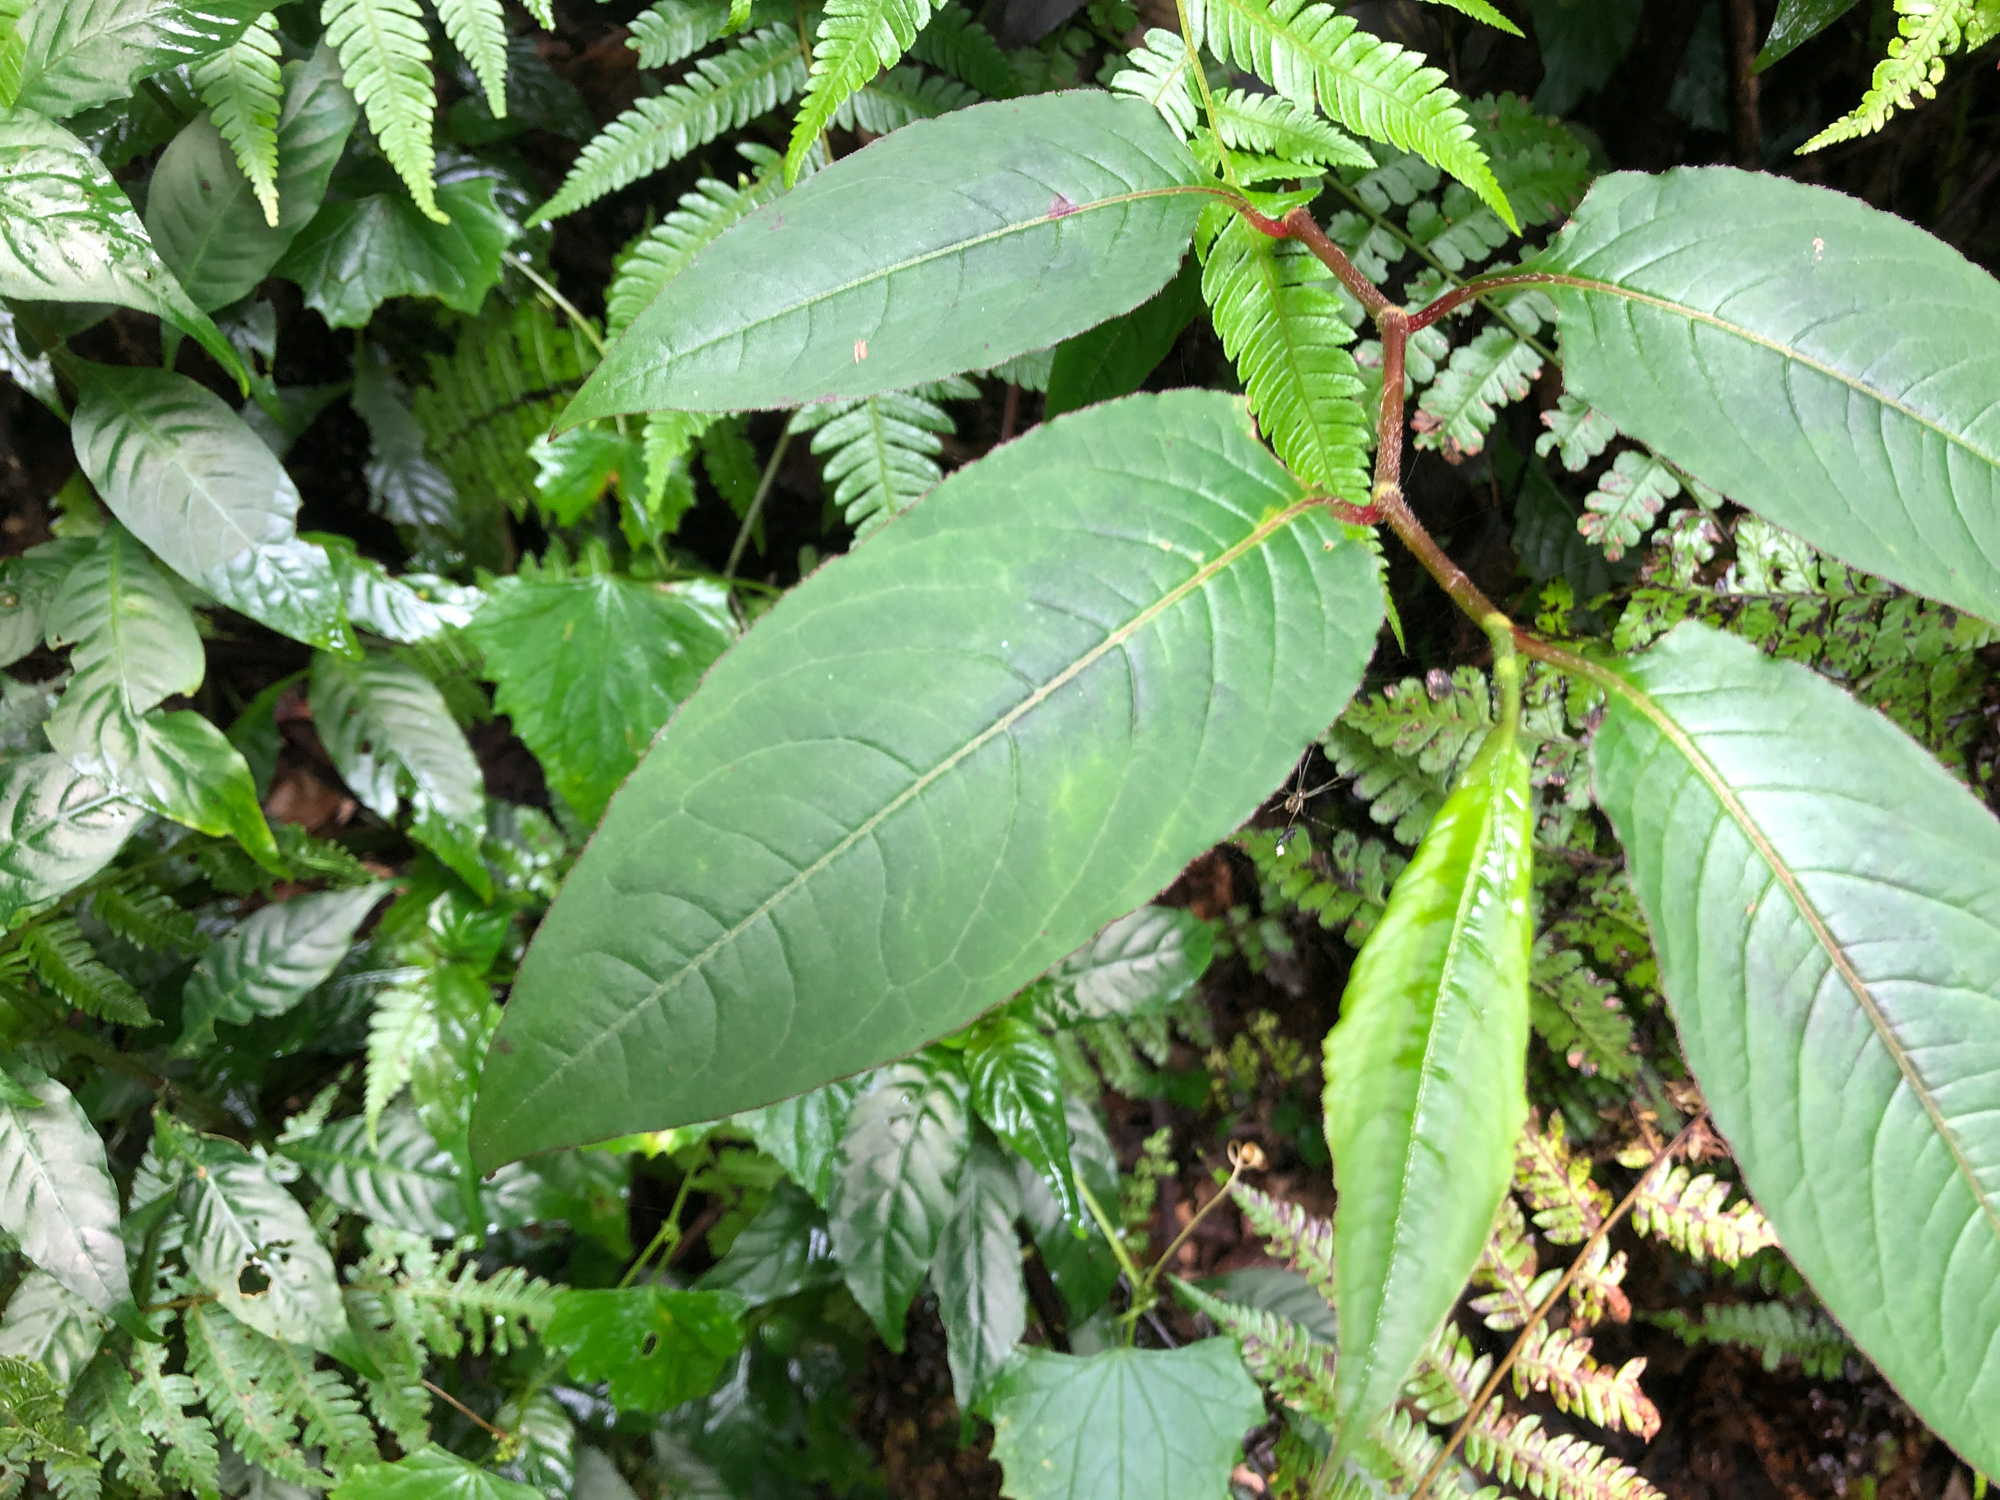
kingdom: Plantae
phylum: Tracheophyta
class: Magnoliopsida
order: Caryophyllales
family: Polygonaceae
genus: Persicaria
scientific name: Persicaria chinensis
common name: Chinese knotweed
